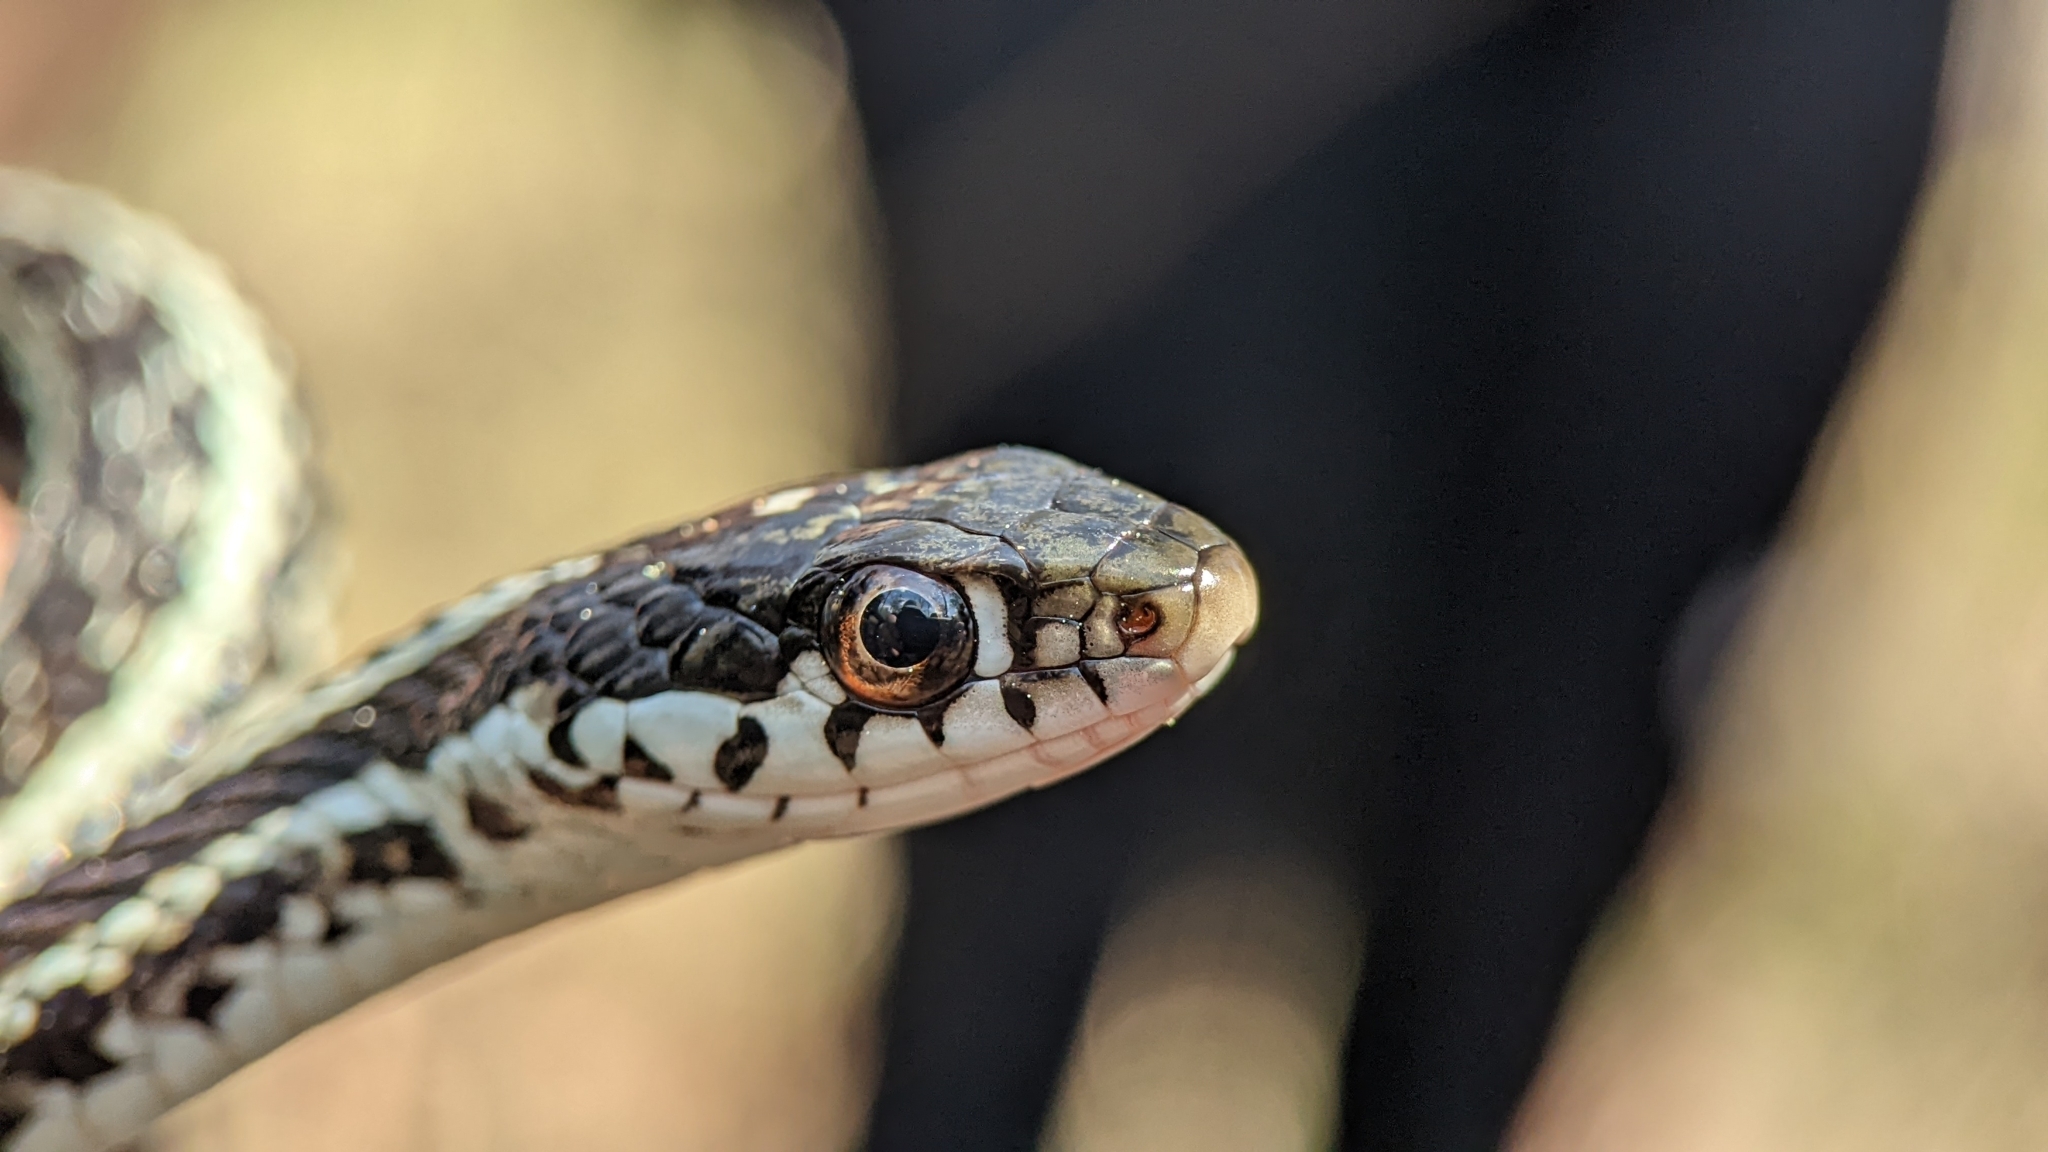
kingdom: Animalia
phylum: Chordata
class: Squamata
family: Colubridae
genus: Thamnophis
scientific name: Thamnophis sirtalis
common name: Common garter snake
